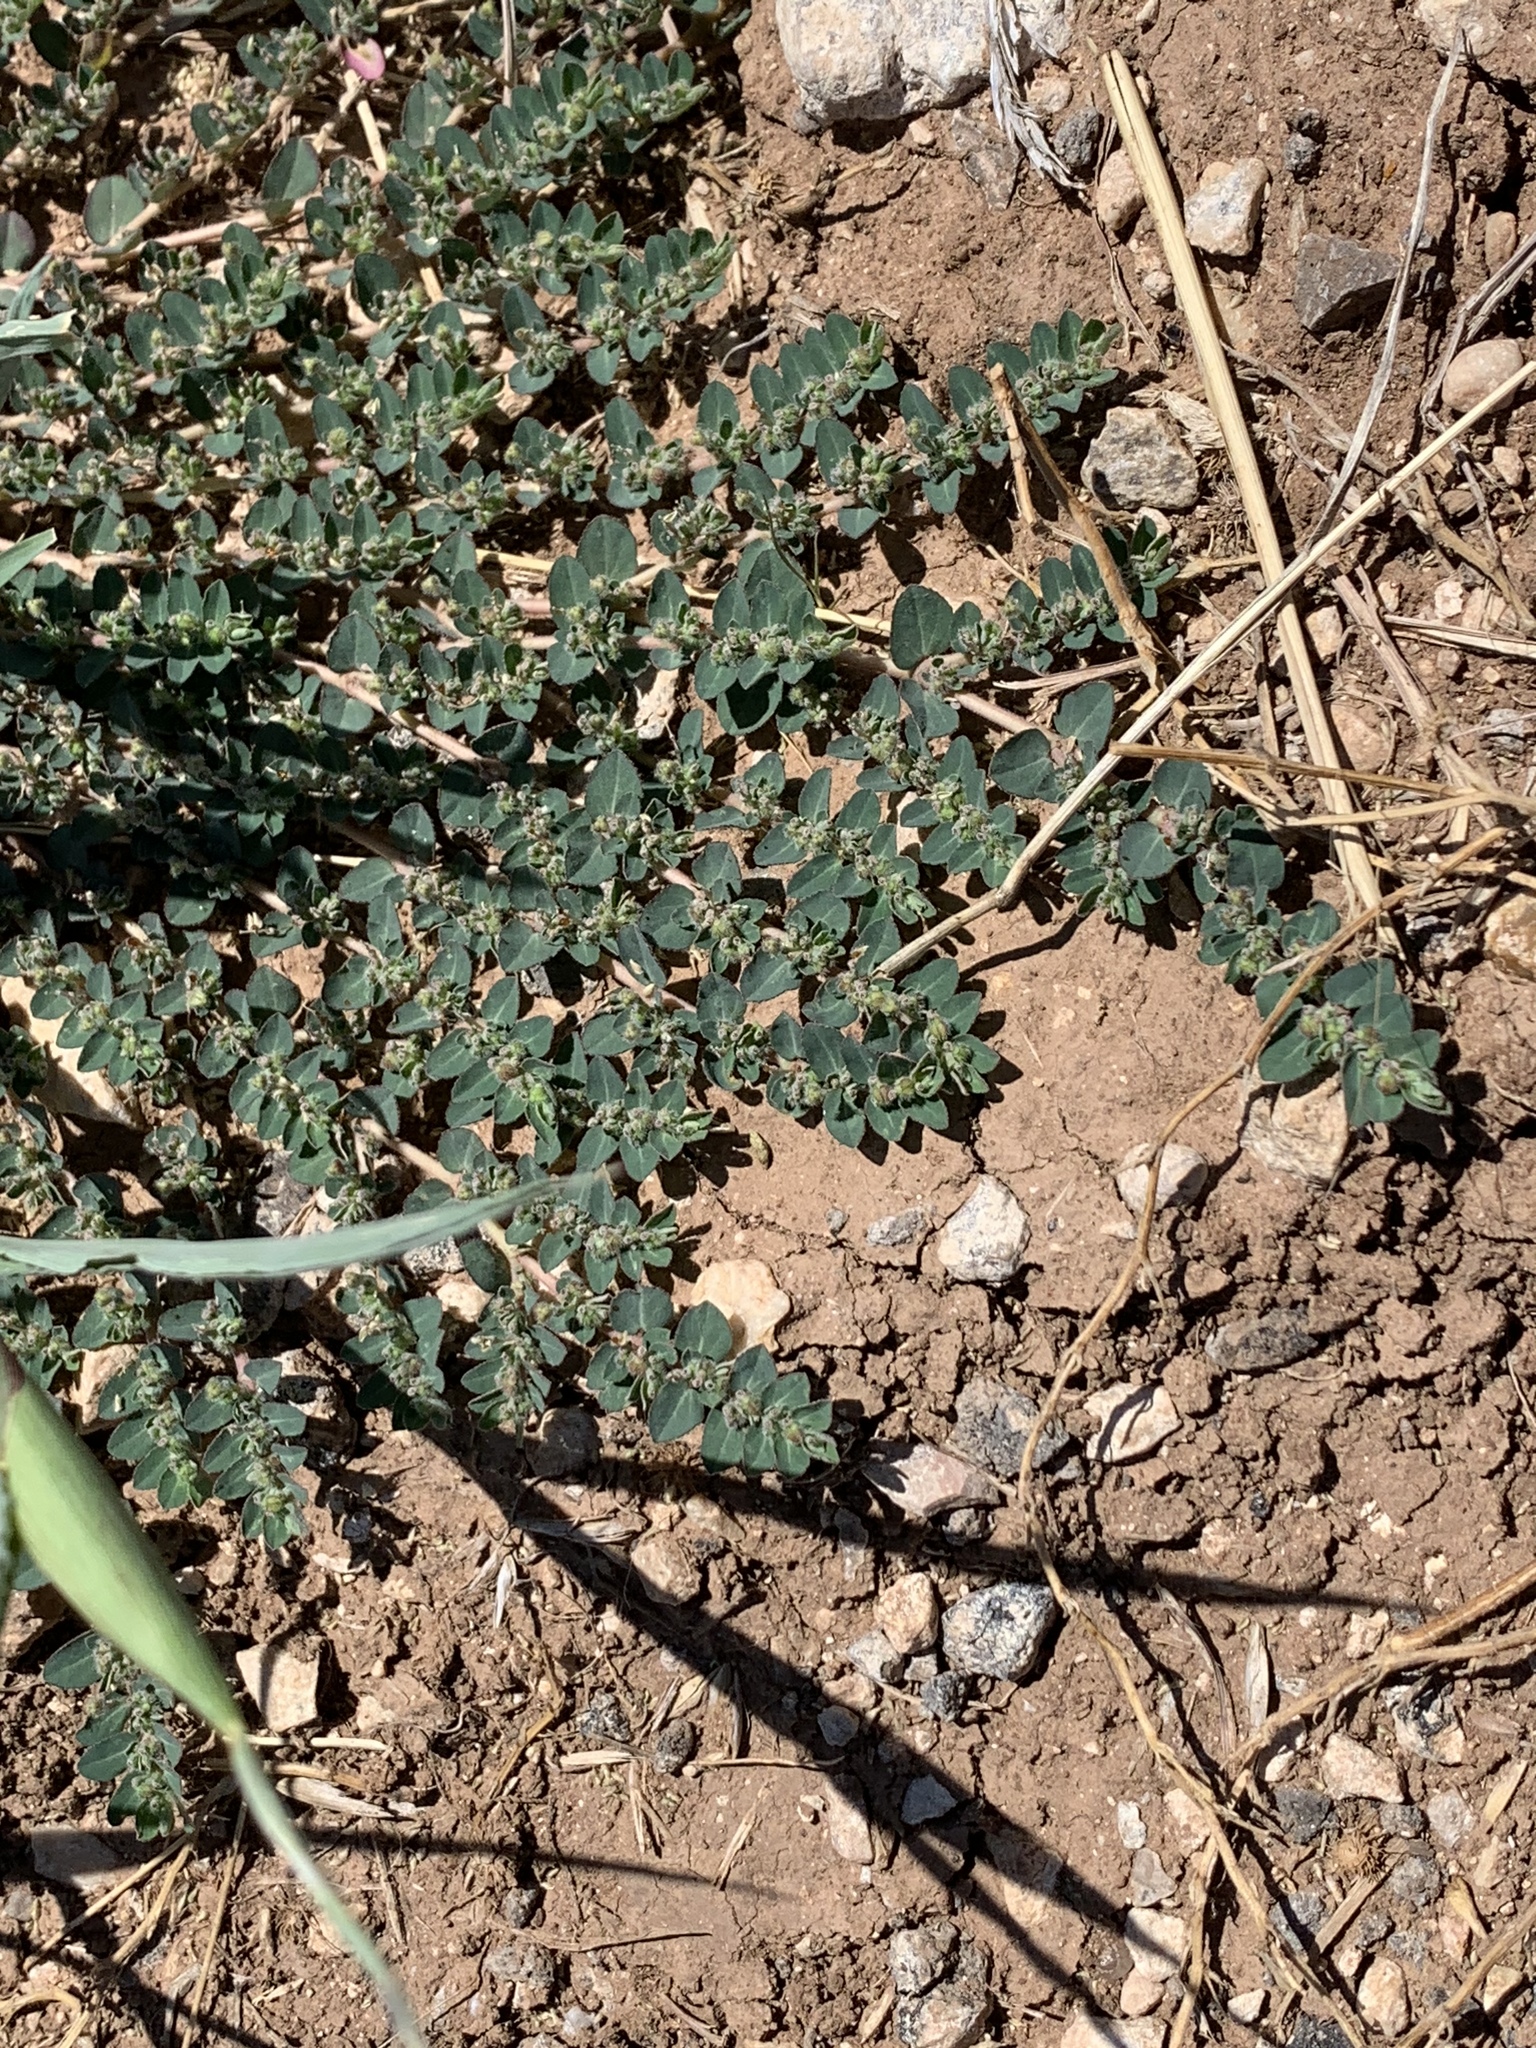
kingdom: Plantae
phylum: Tracheophyta
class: Magnoliopsida
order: Malpighiales
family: Euphorbiaceae
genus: Euphorbia
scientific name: Euphorbia prostrata
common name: Prostrate sandmat
